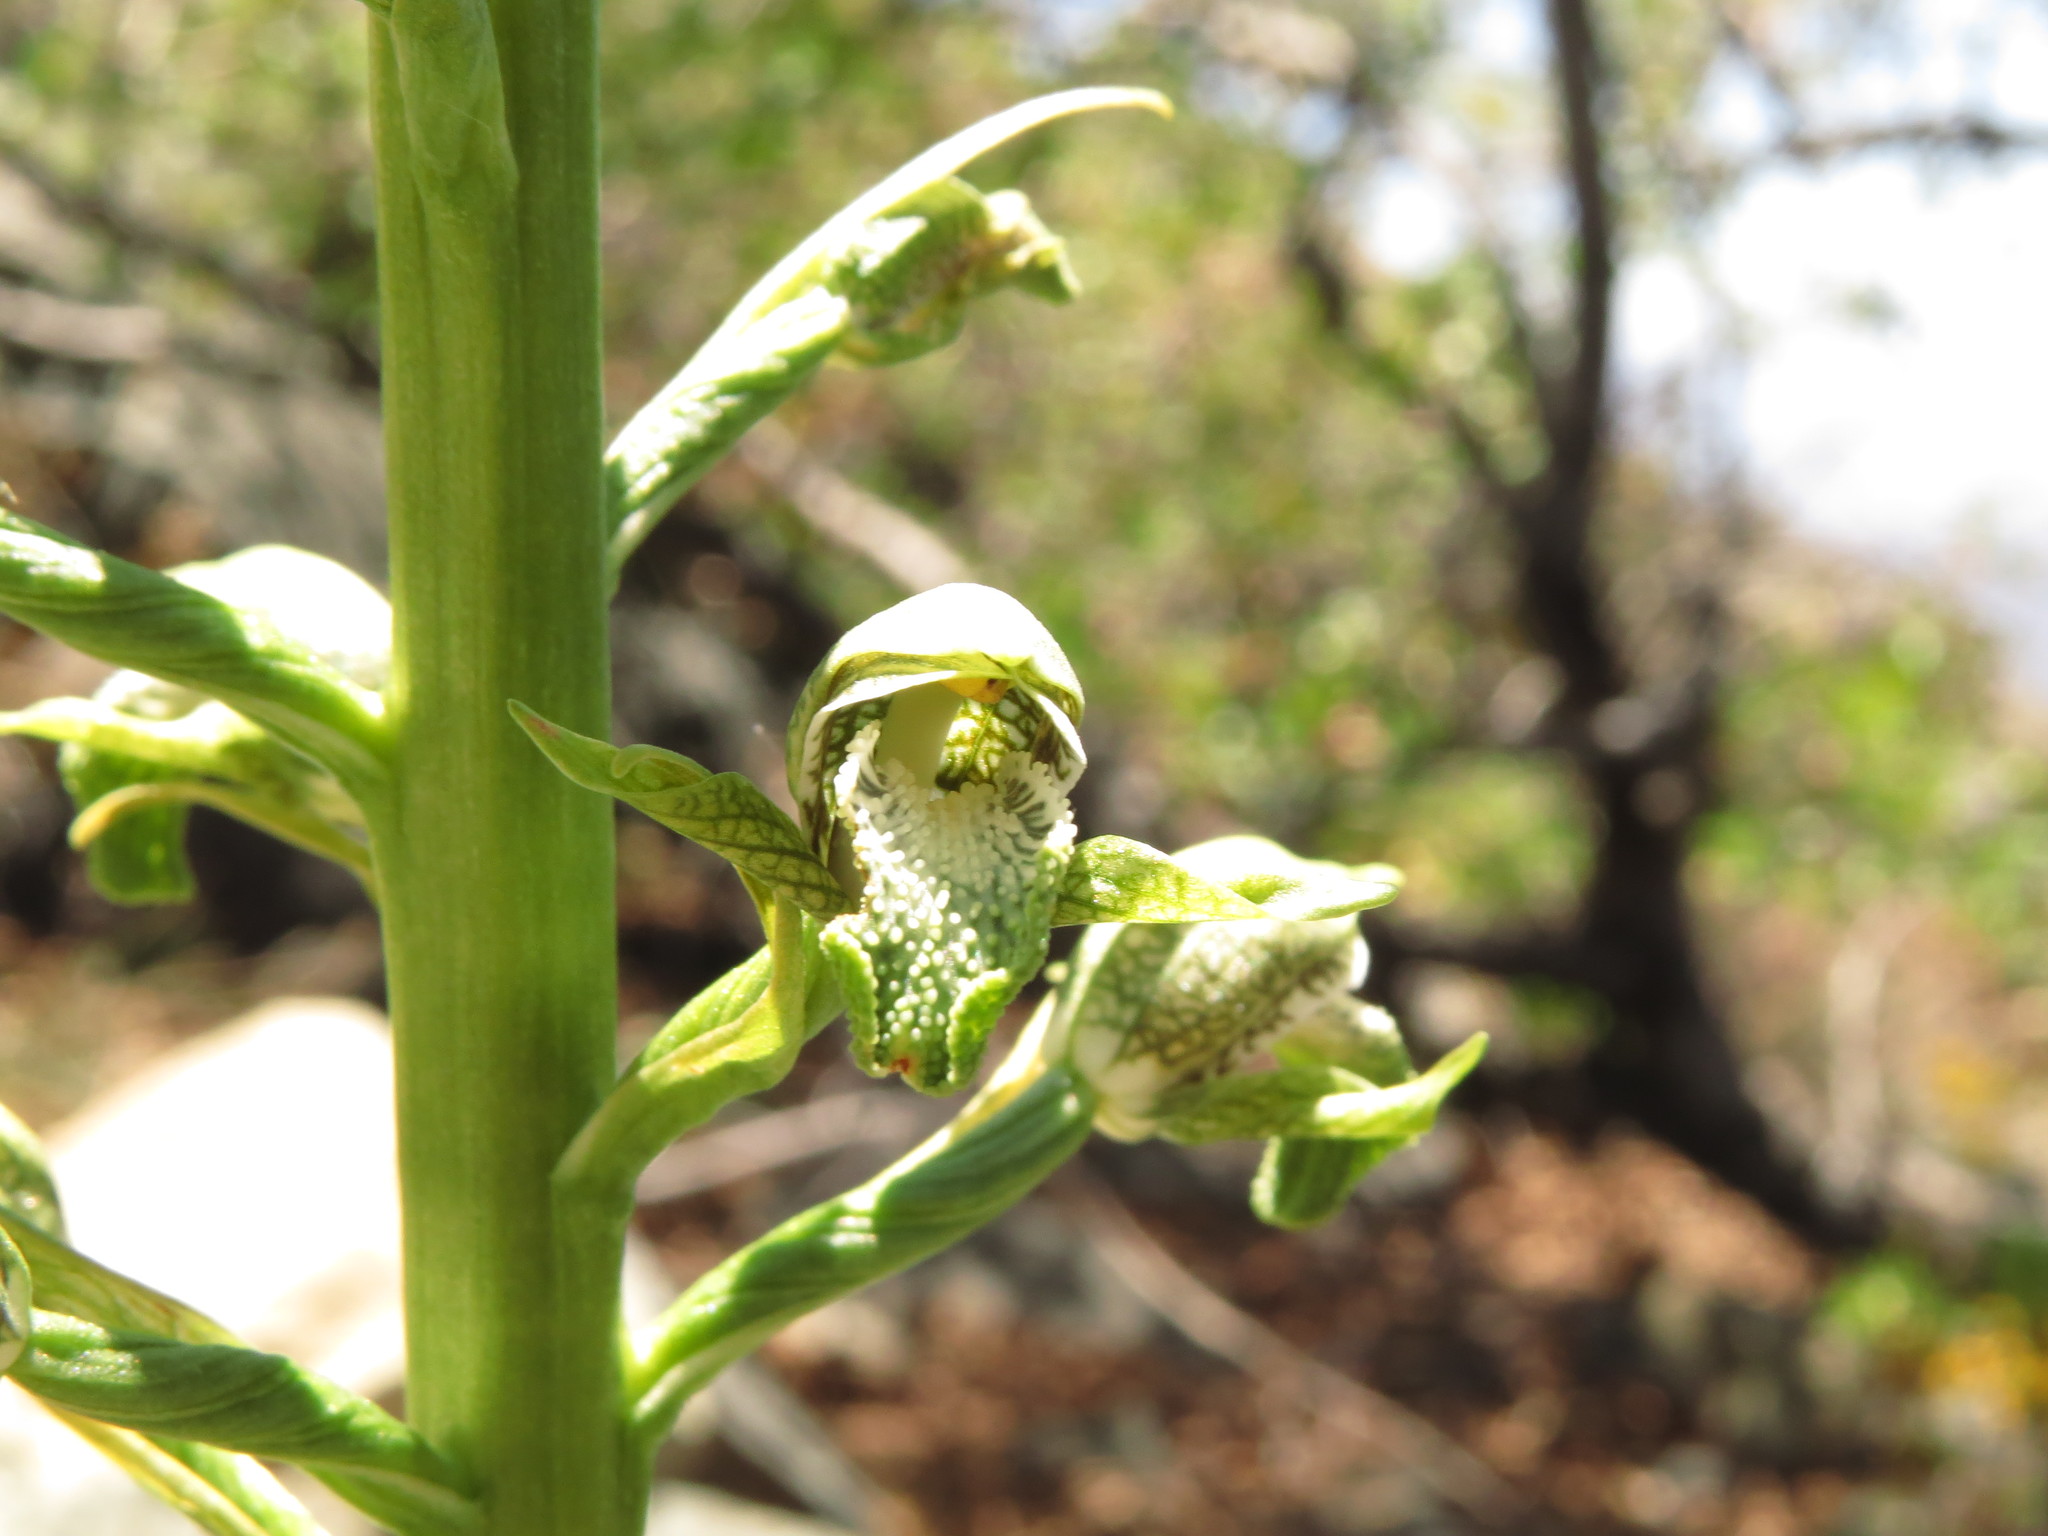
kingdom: Plantae
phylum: Tracheophyta
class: Liliopsida
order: Asparagales
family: Orchidaceae
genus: Chloraea
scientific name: Chloraea cylindrostachya
